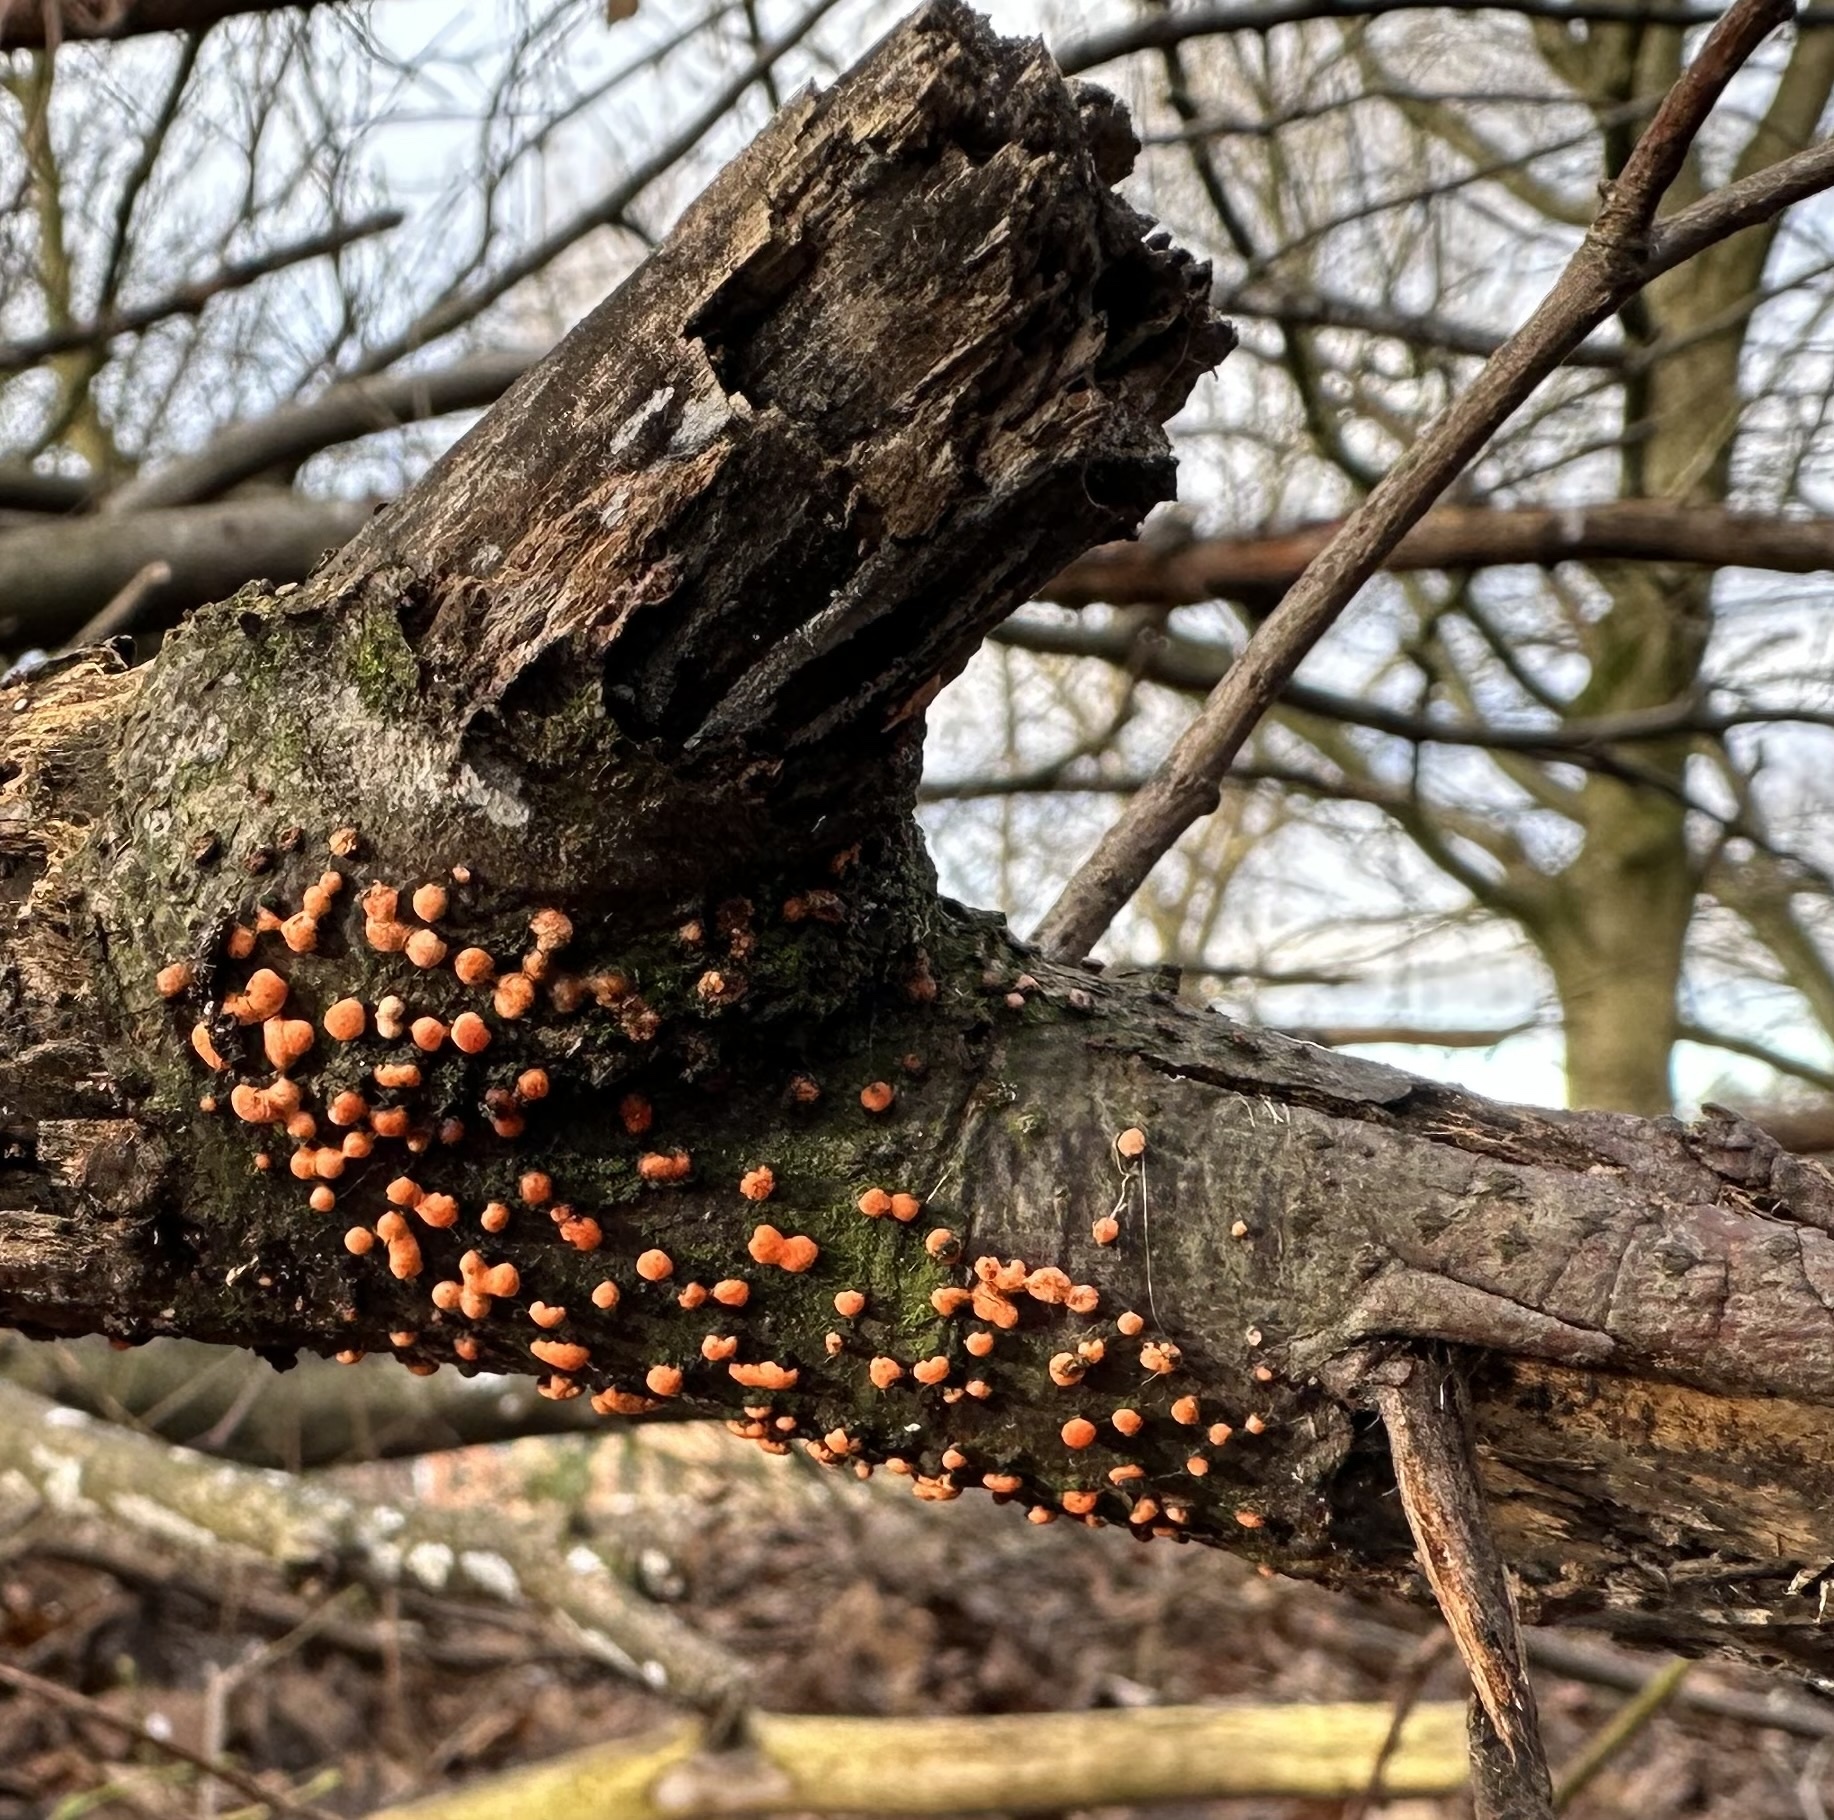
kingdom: Fungi
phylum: Ascomycota
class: Sordariomycetes
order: Hypocreales
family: Nectriaceae
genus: Nectria
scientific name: Nectria cinnabarina
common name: Coral spot
